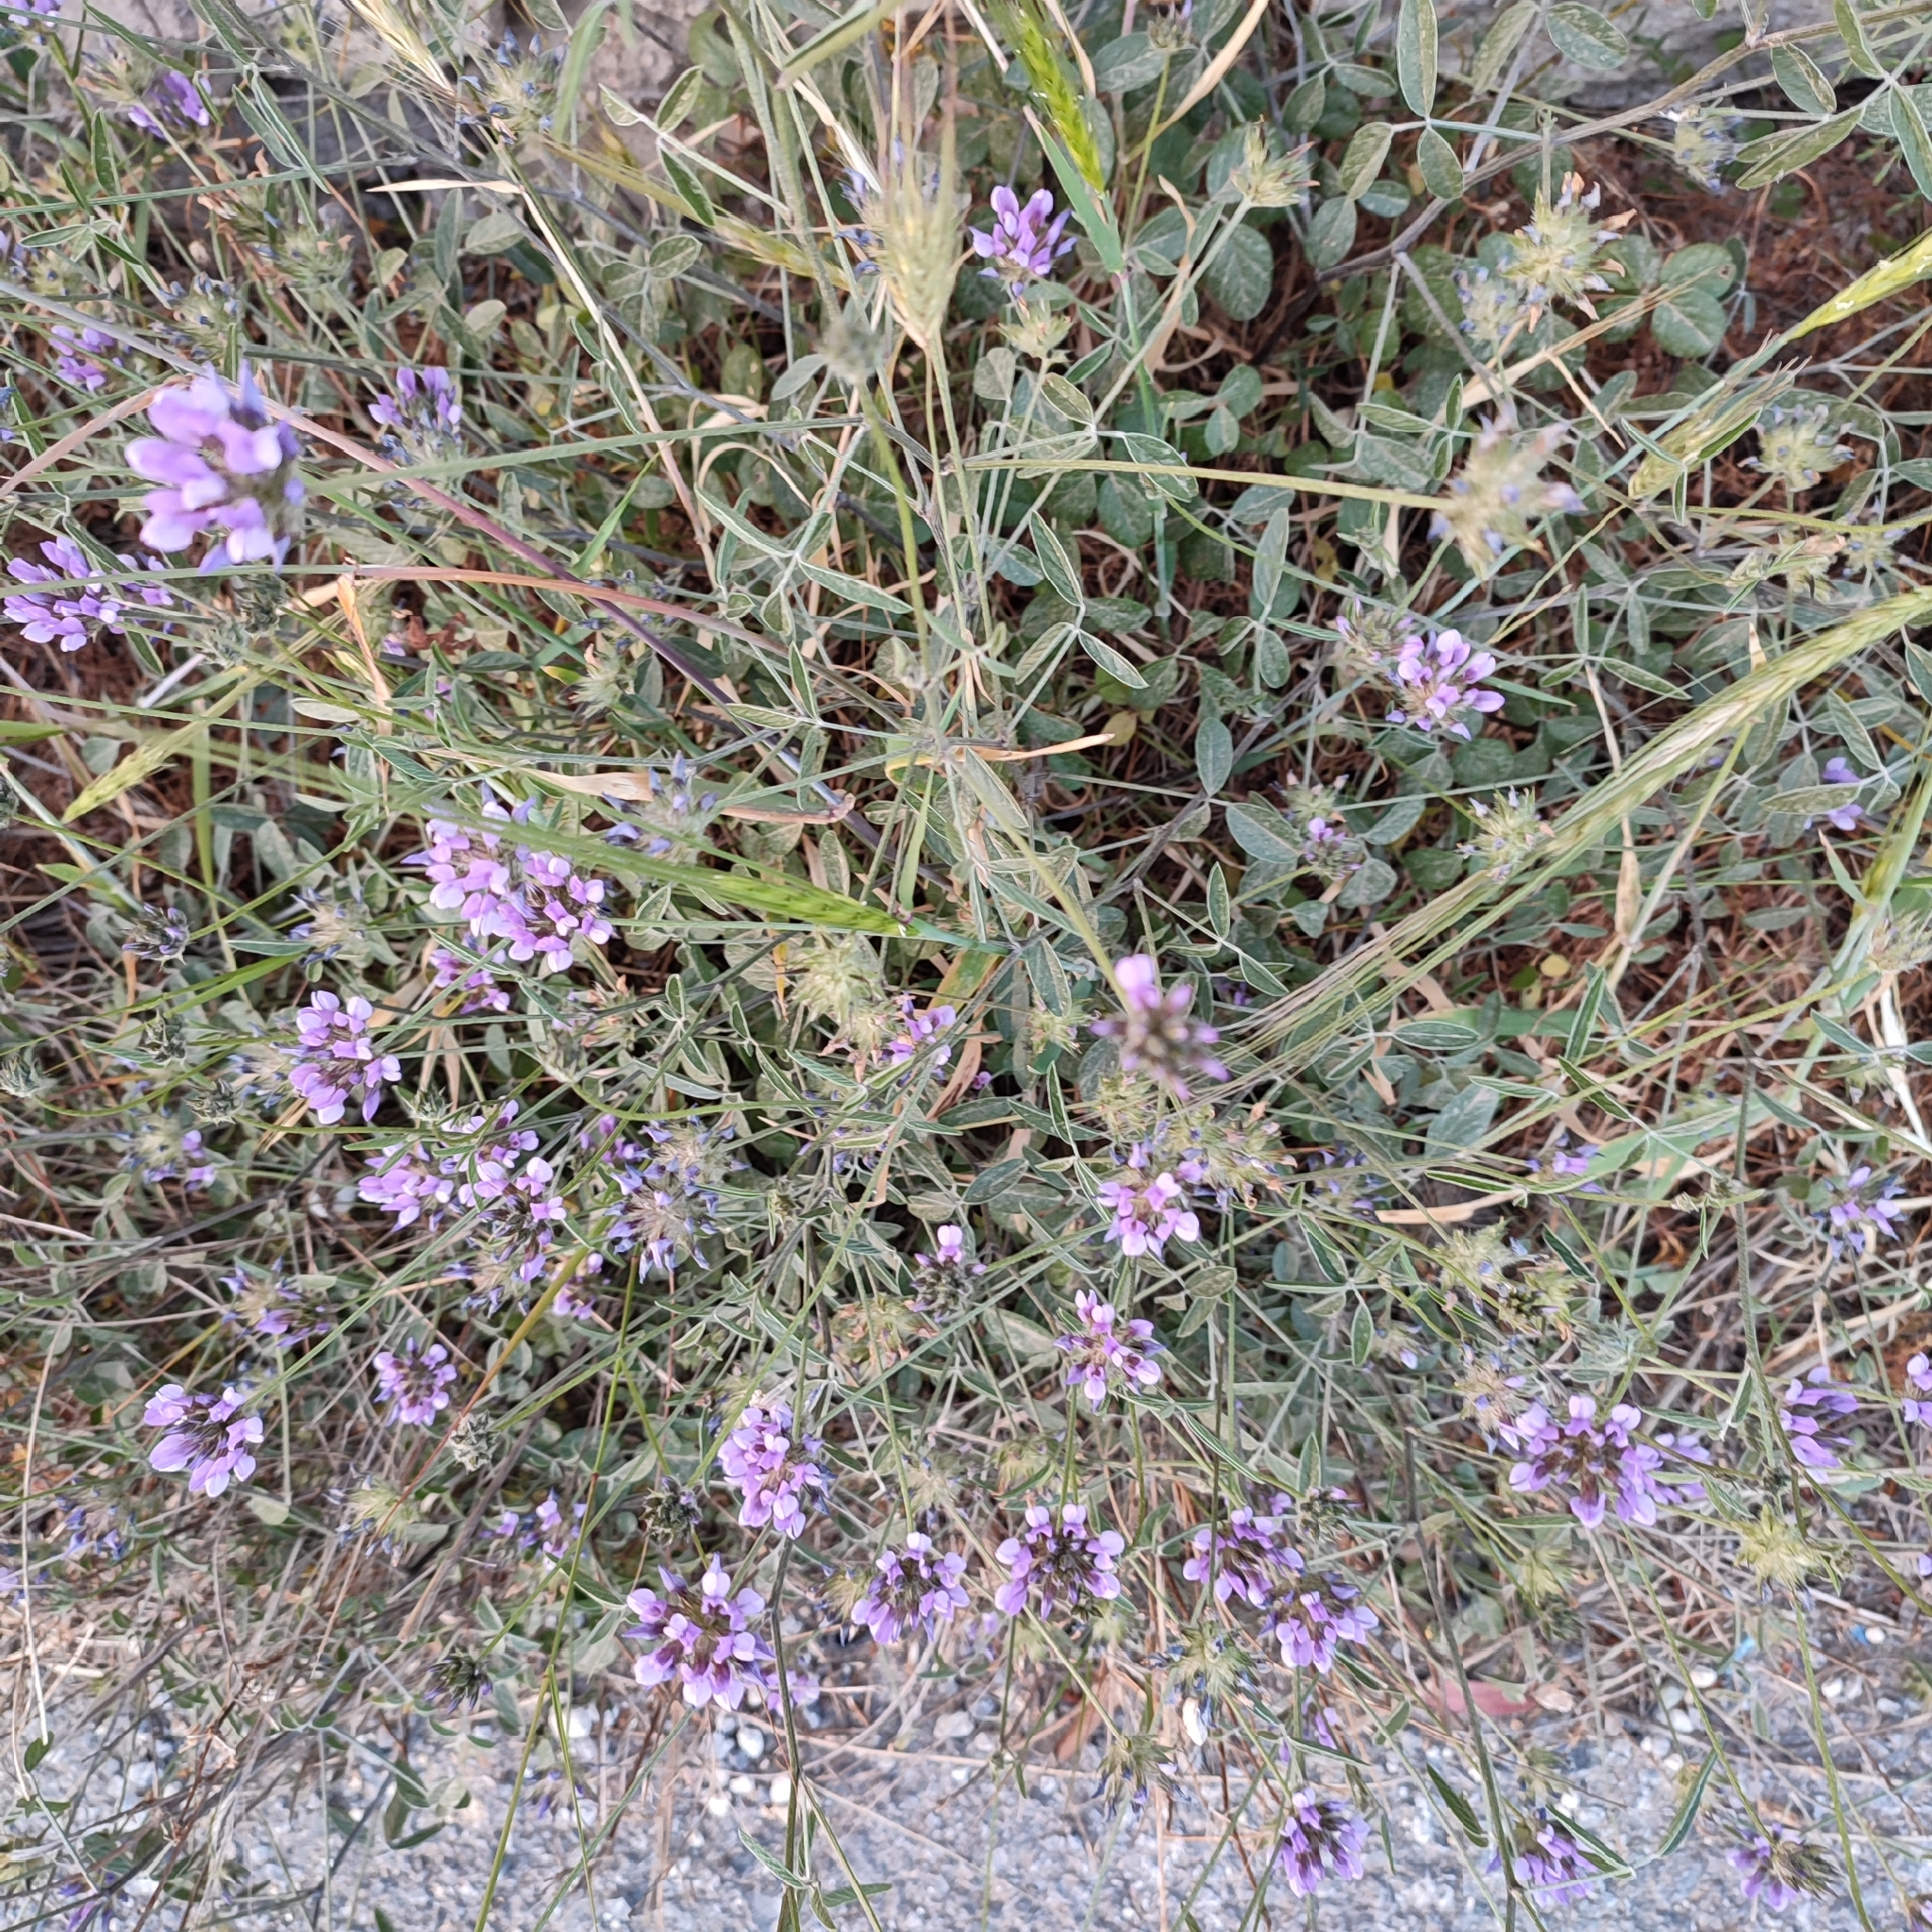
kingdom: Plantae
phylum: Tracheophyta
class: Magnoliopsida
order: Fabales
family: Fabaceae
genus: Bituminaria
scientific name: Bituminaria bituminosa
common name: Arabian pea
